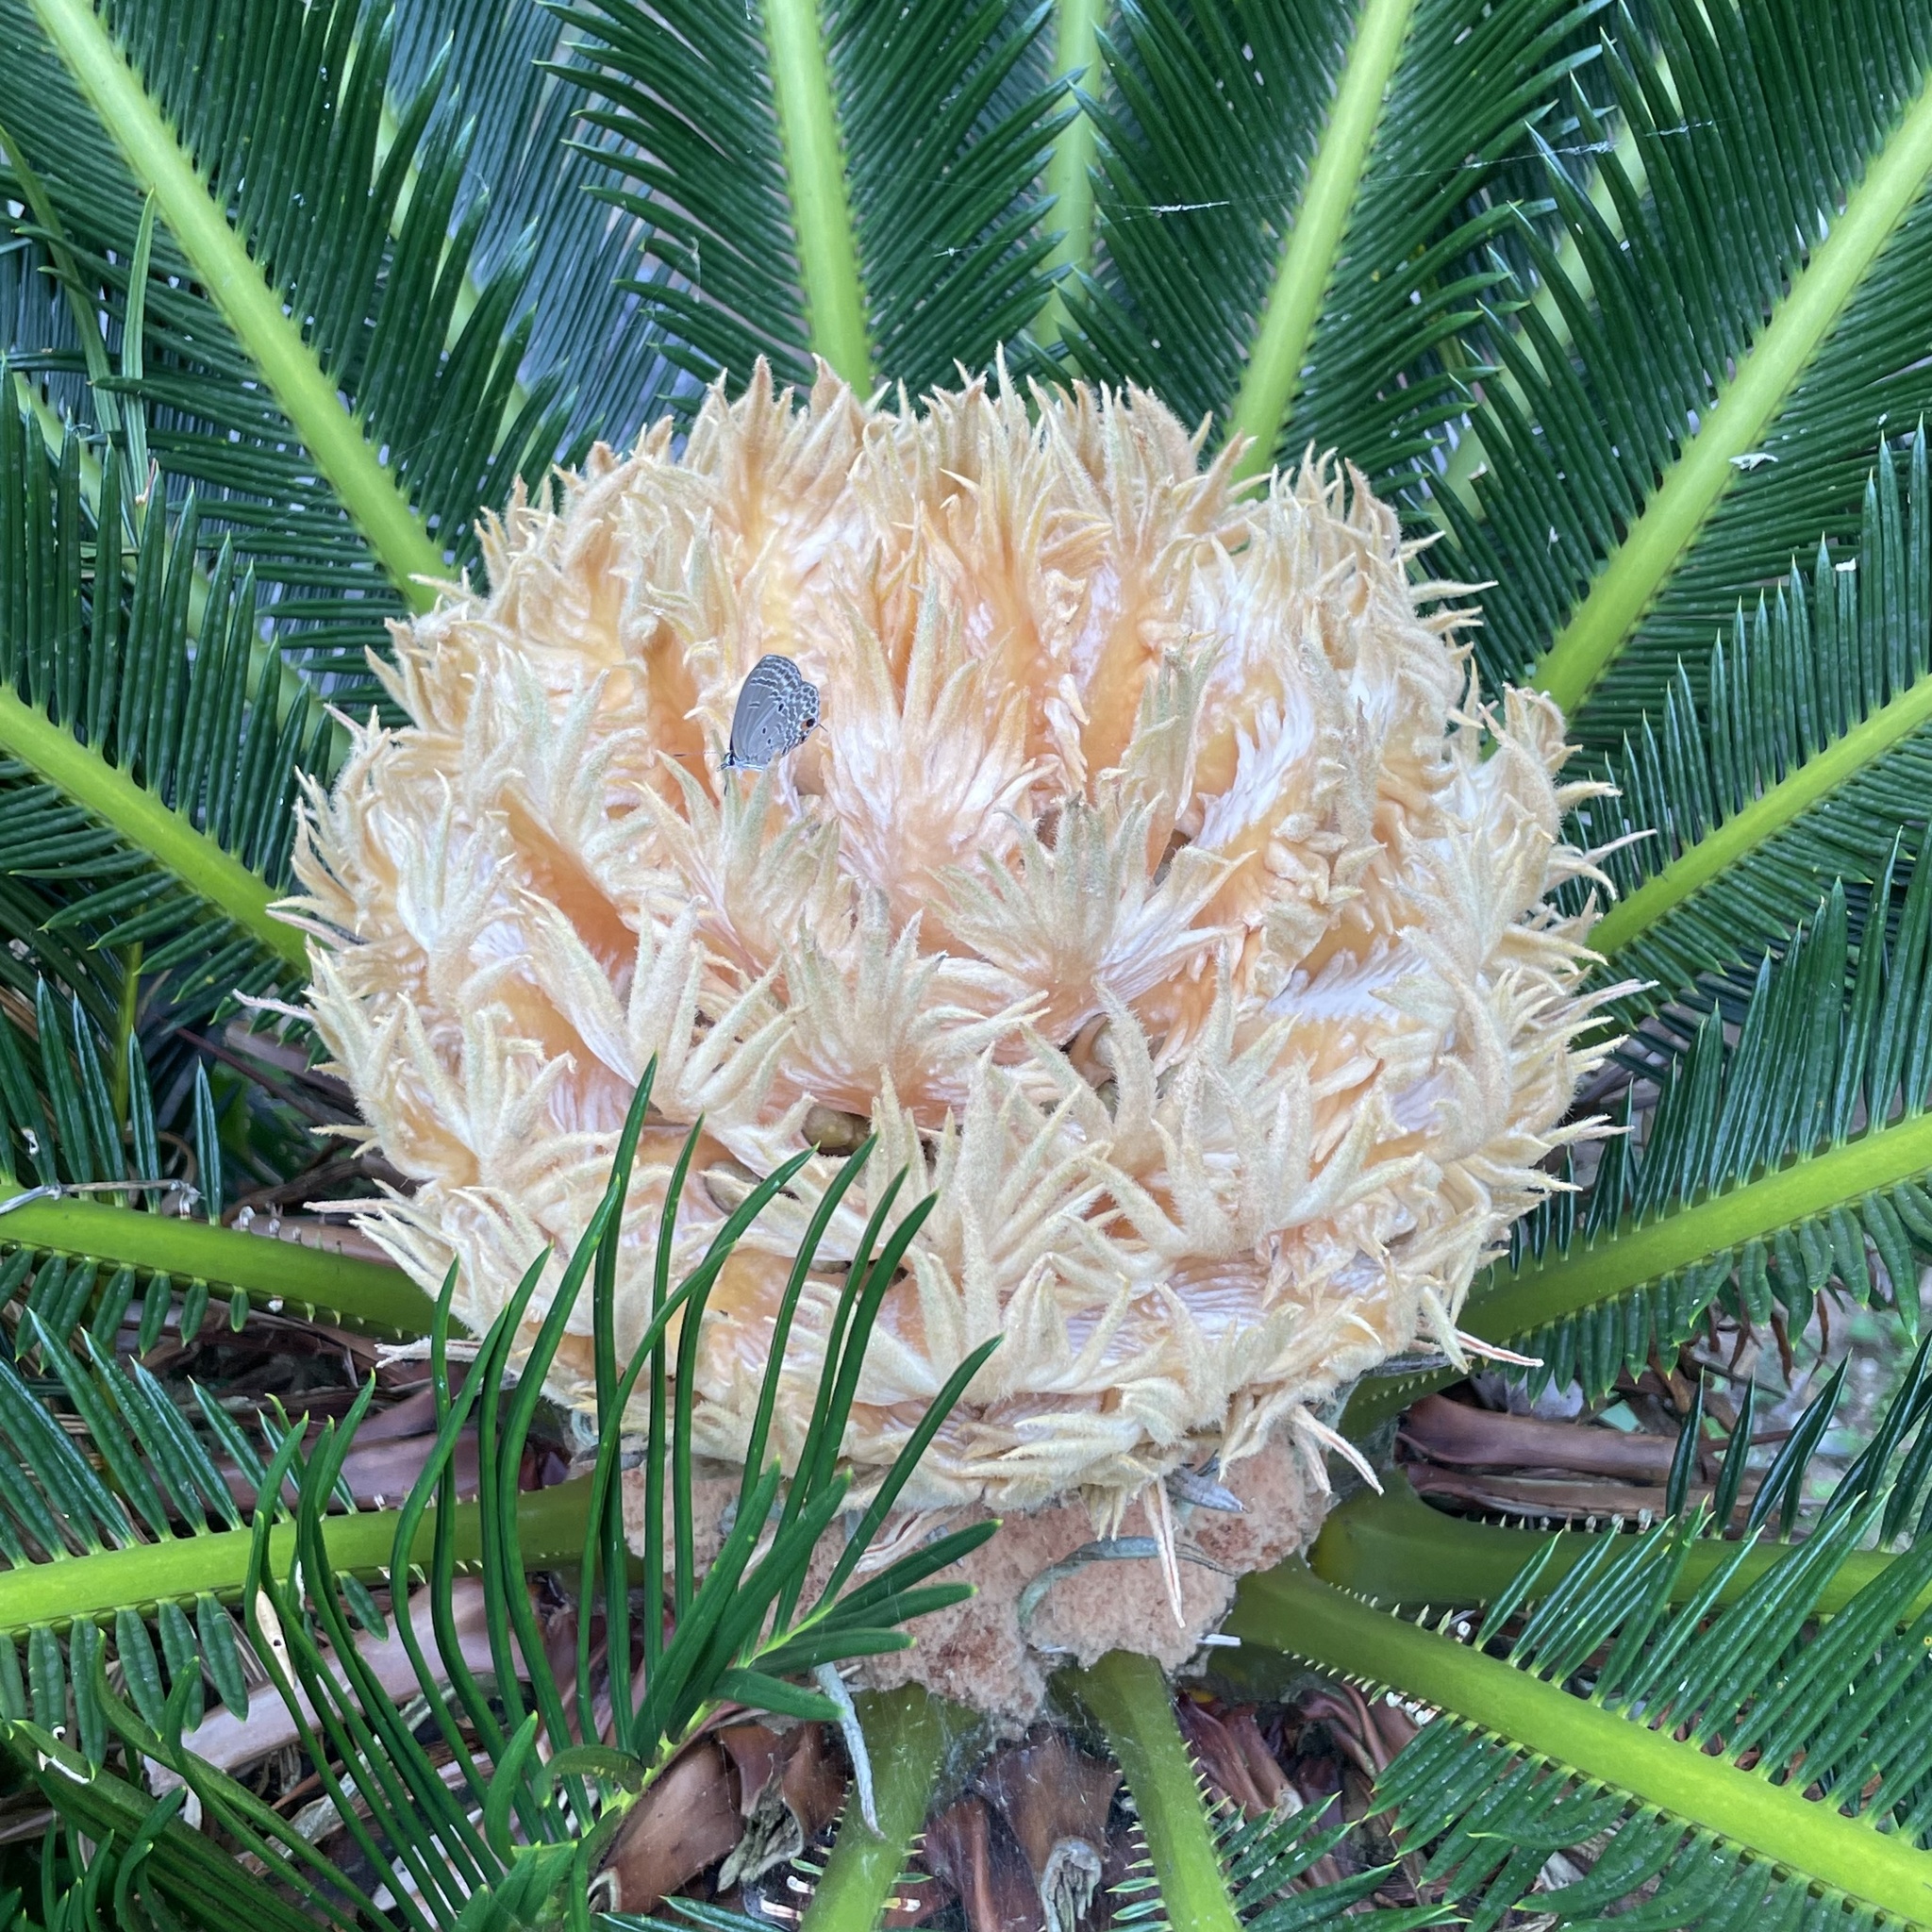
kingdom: Plantae
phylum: Tracheophyta
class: Cycadopsida
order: Cycadales
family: Cycadaceae
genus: Cycas
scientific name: Cycas revoluta
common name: Sago palm
